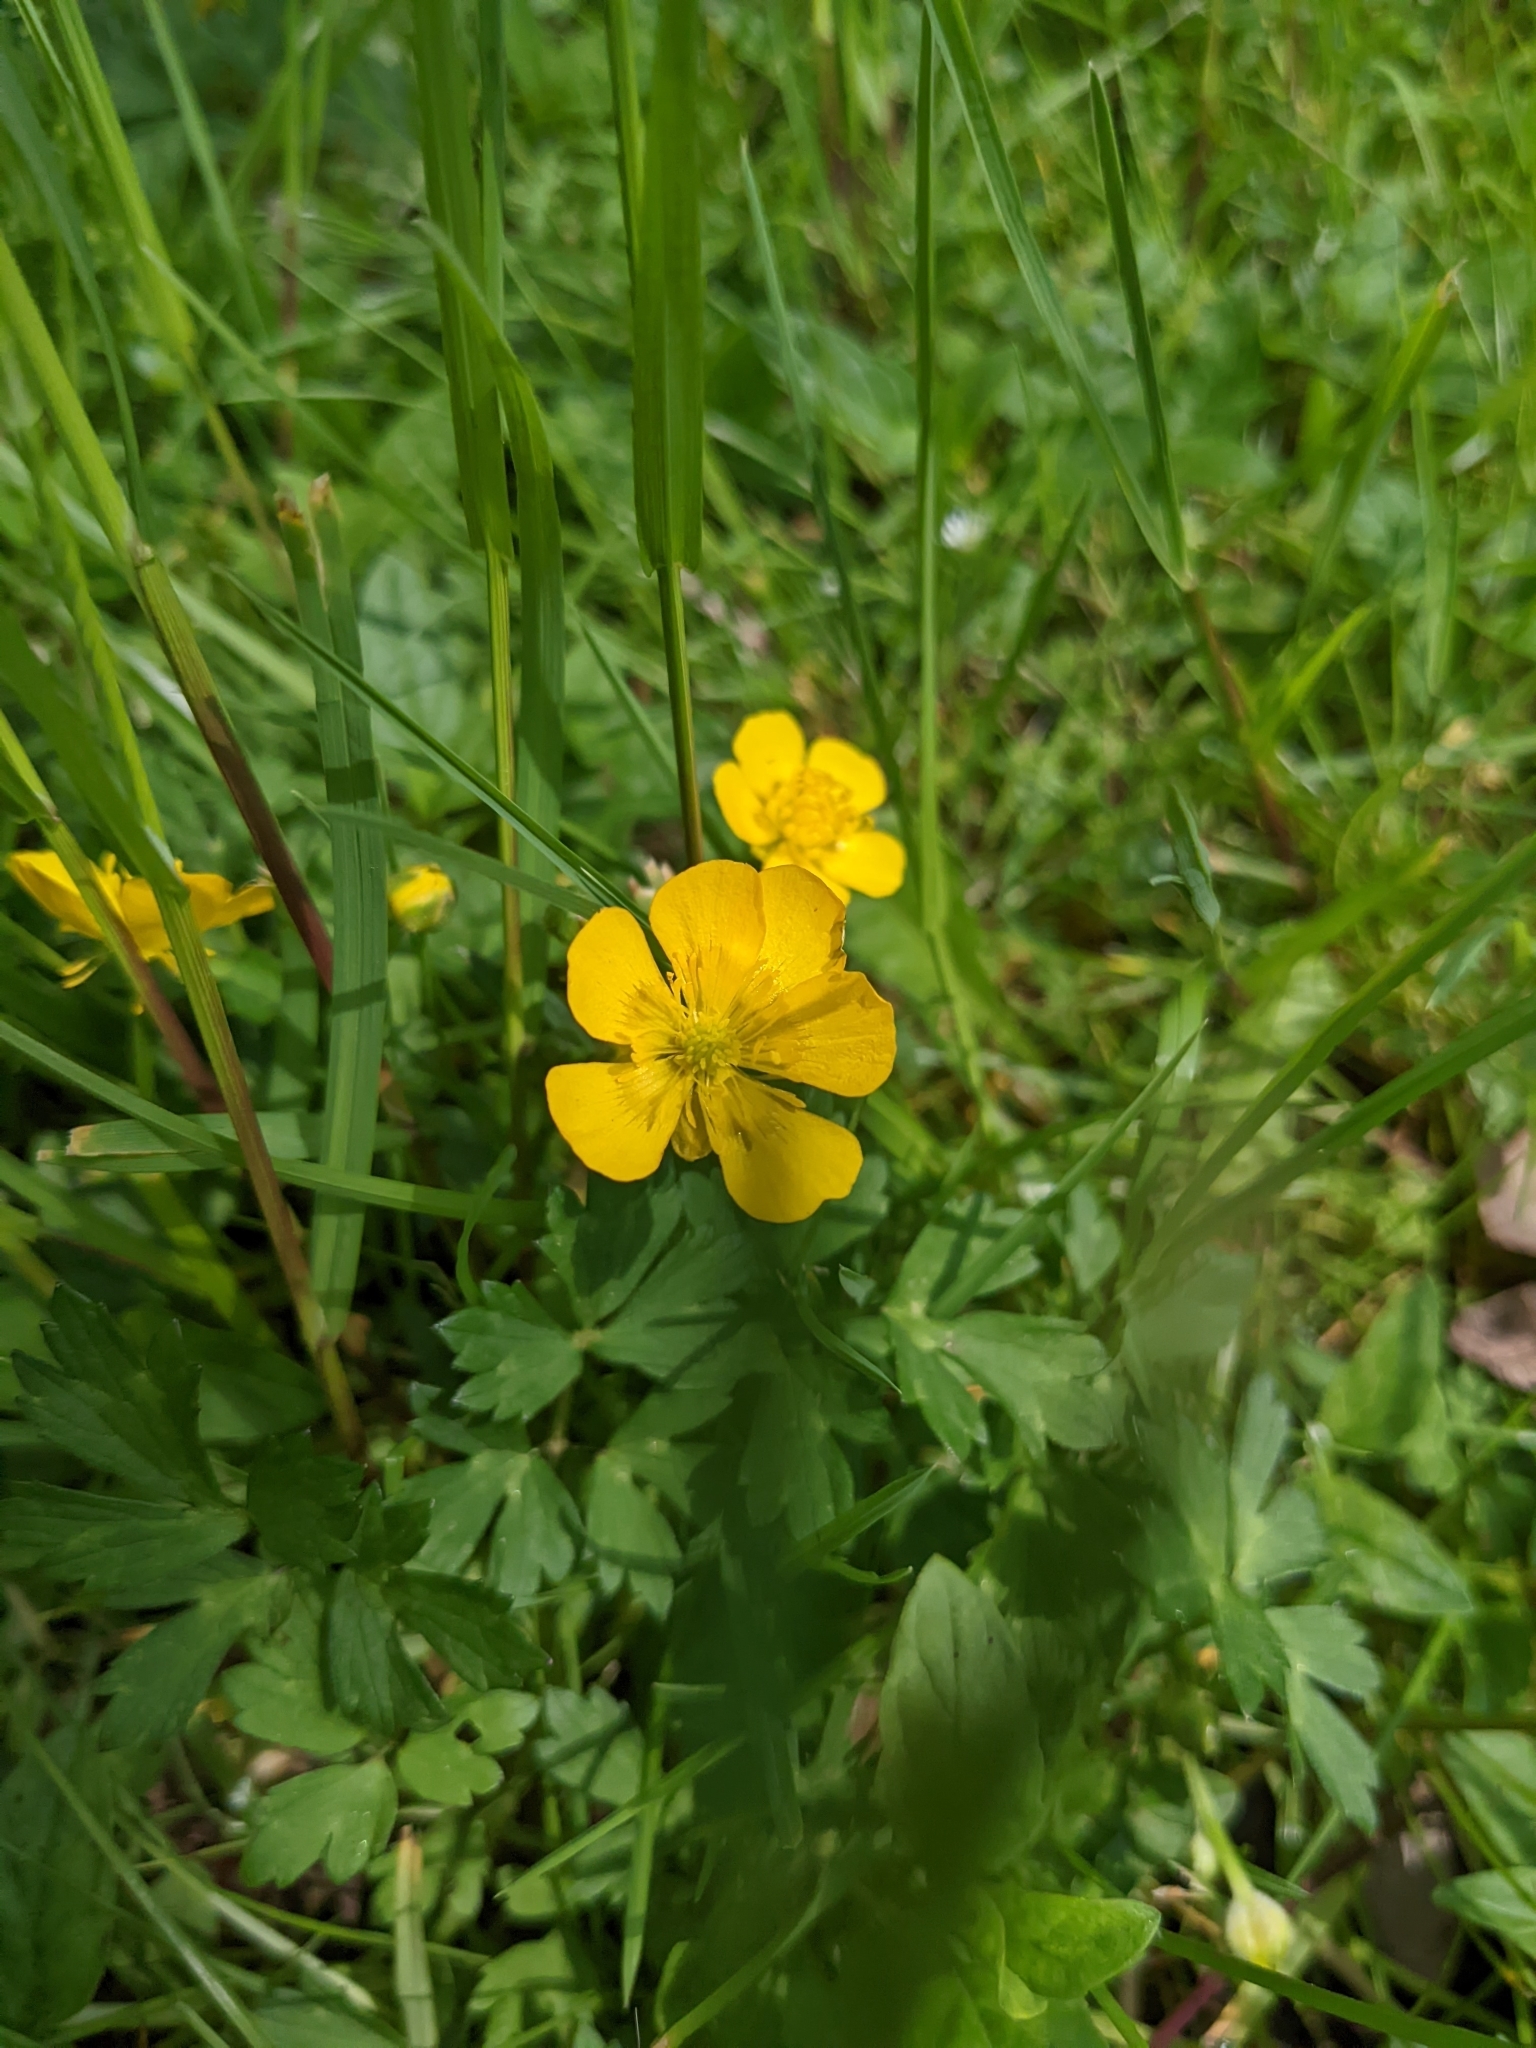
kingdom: Plantae
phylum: Tracheophyta
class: Magnoliopsida
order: Ranunculales
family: Ranunculaceae
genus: Ranunculus
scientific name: Ranunculus repens
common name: Creeping buttercup
